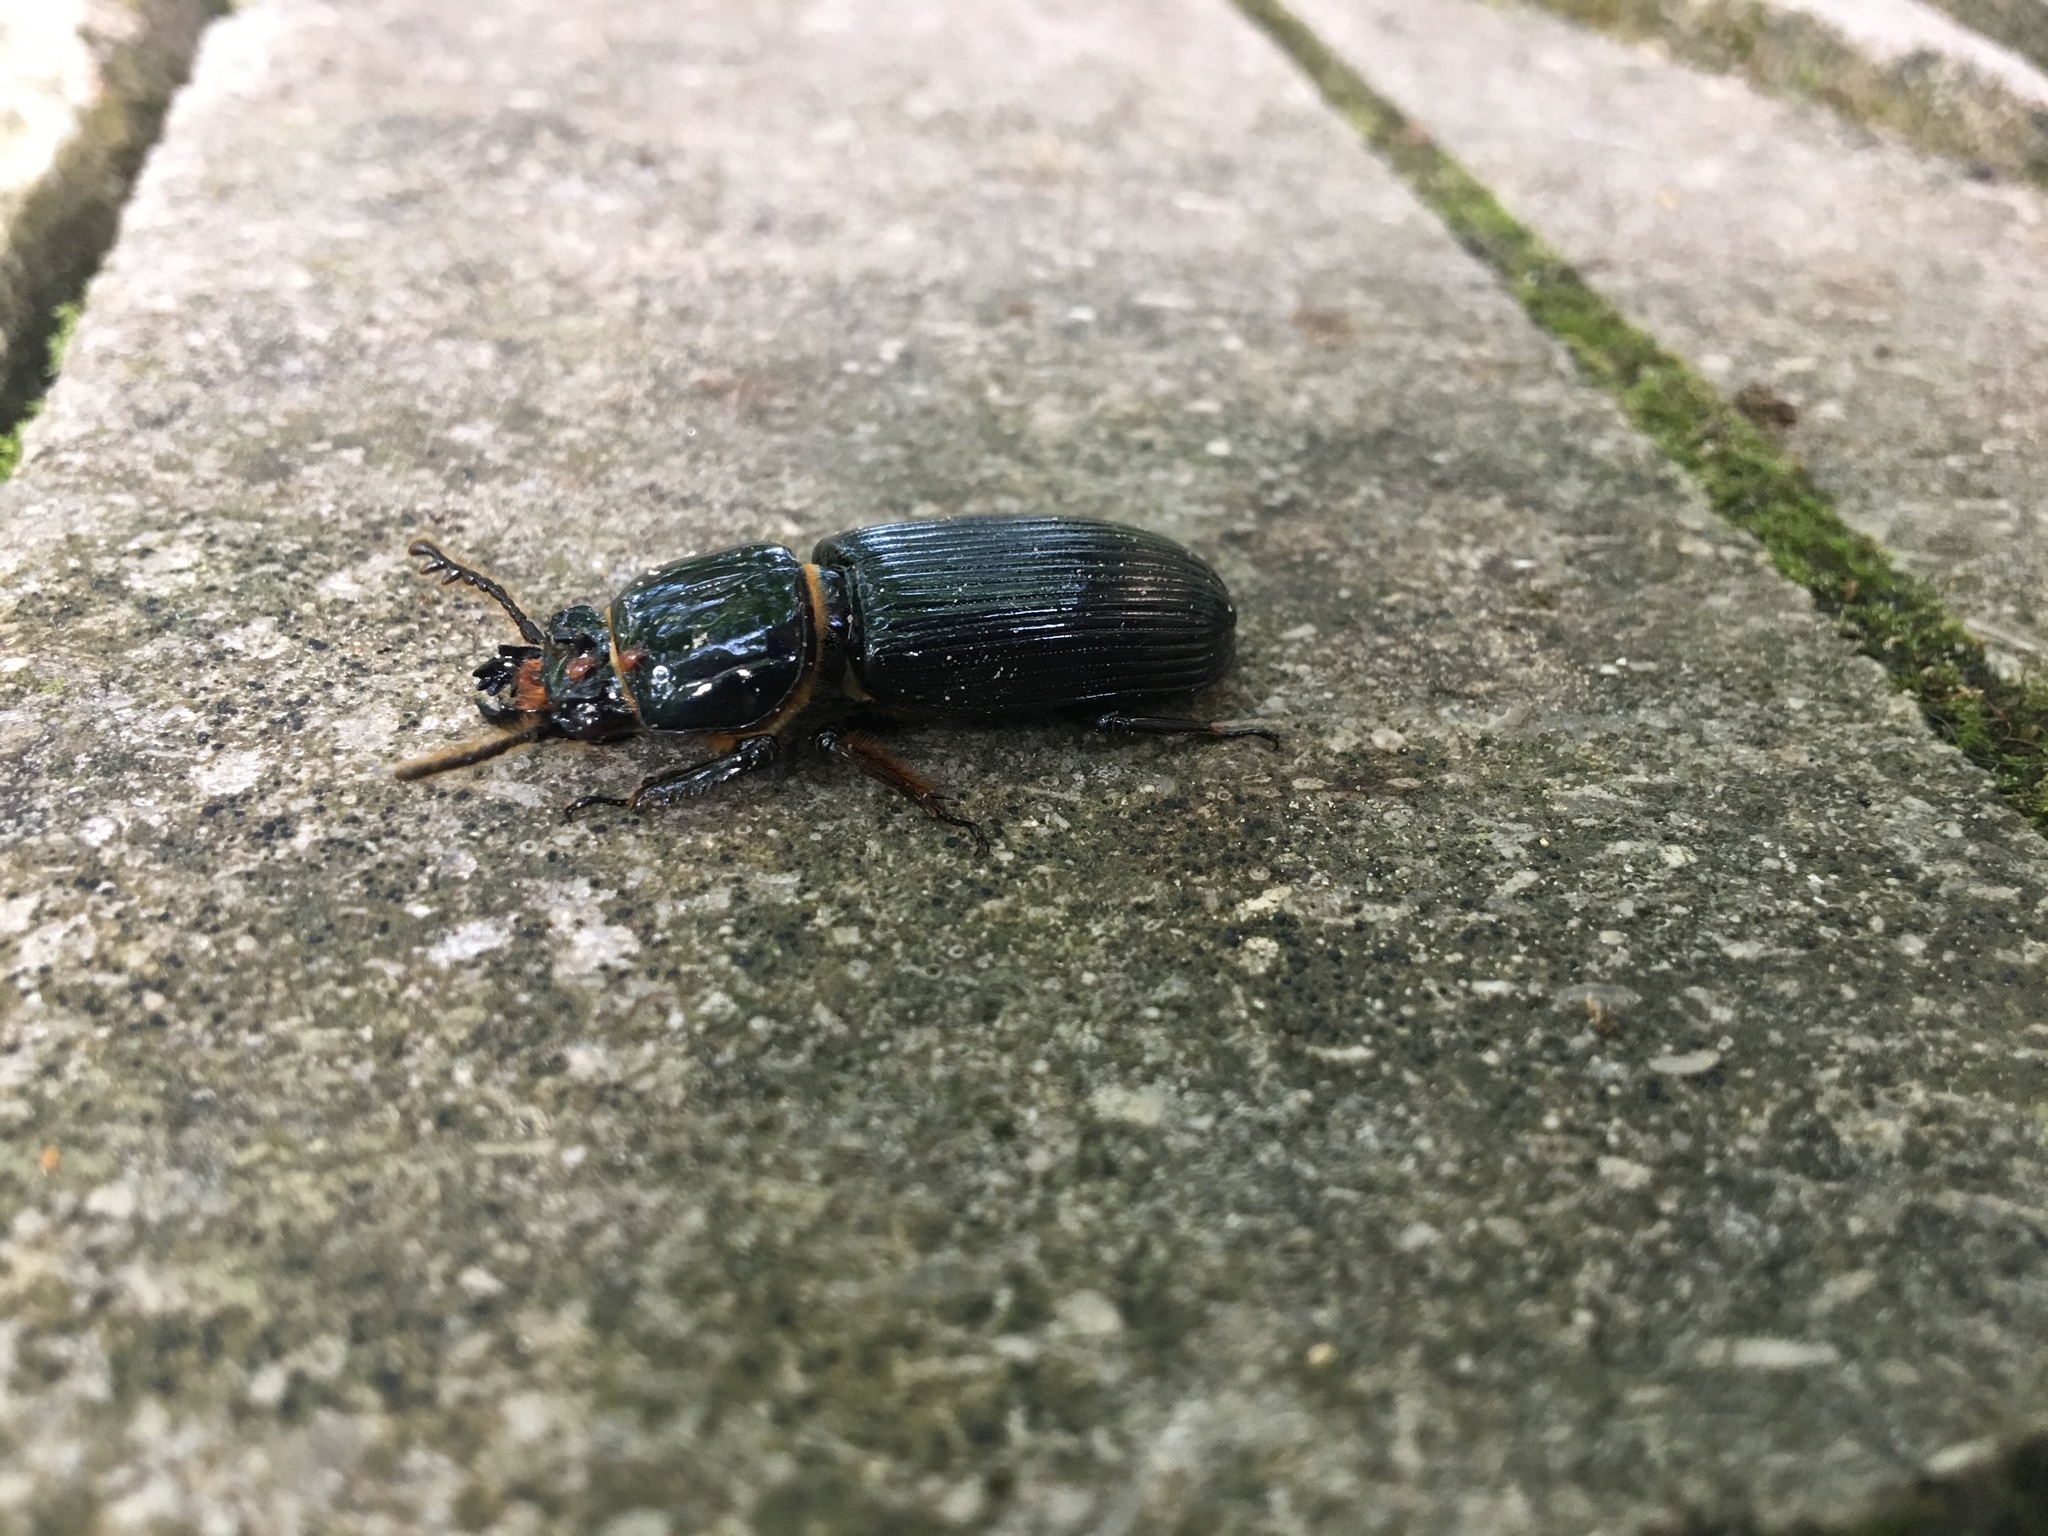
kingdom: Animalia
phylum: Arthropoda
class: Insecta
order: Coleoptera
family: Passalidae
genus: Odontotaenius
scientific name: Odontotaenius disjunctus
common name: Patent leather beetle
